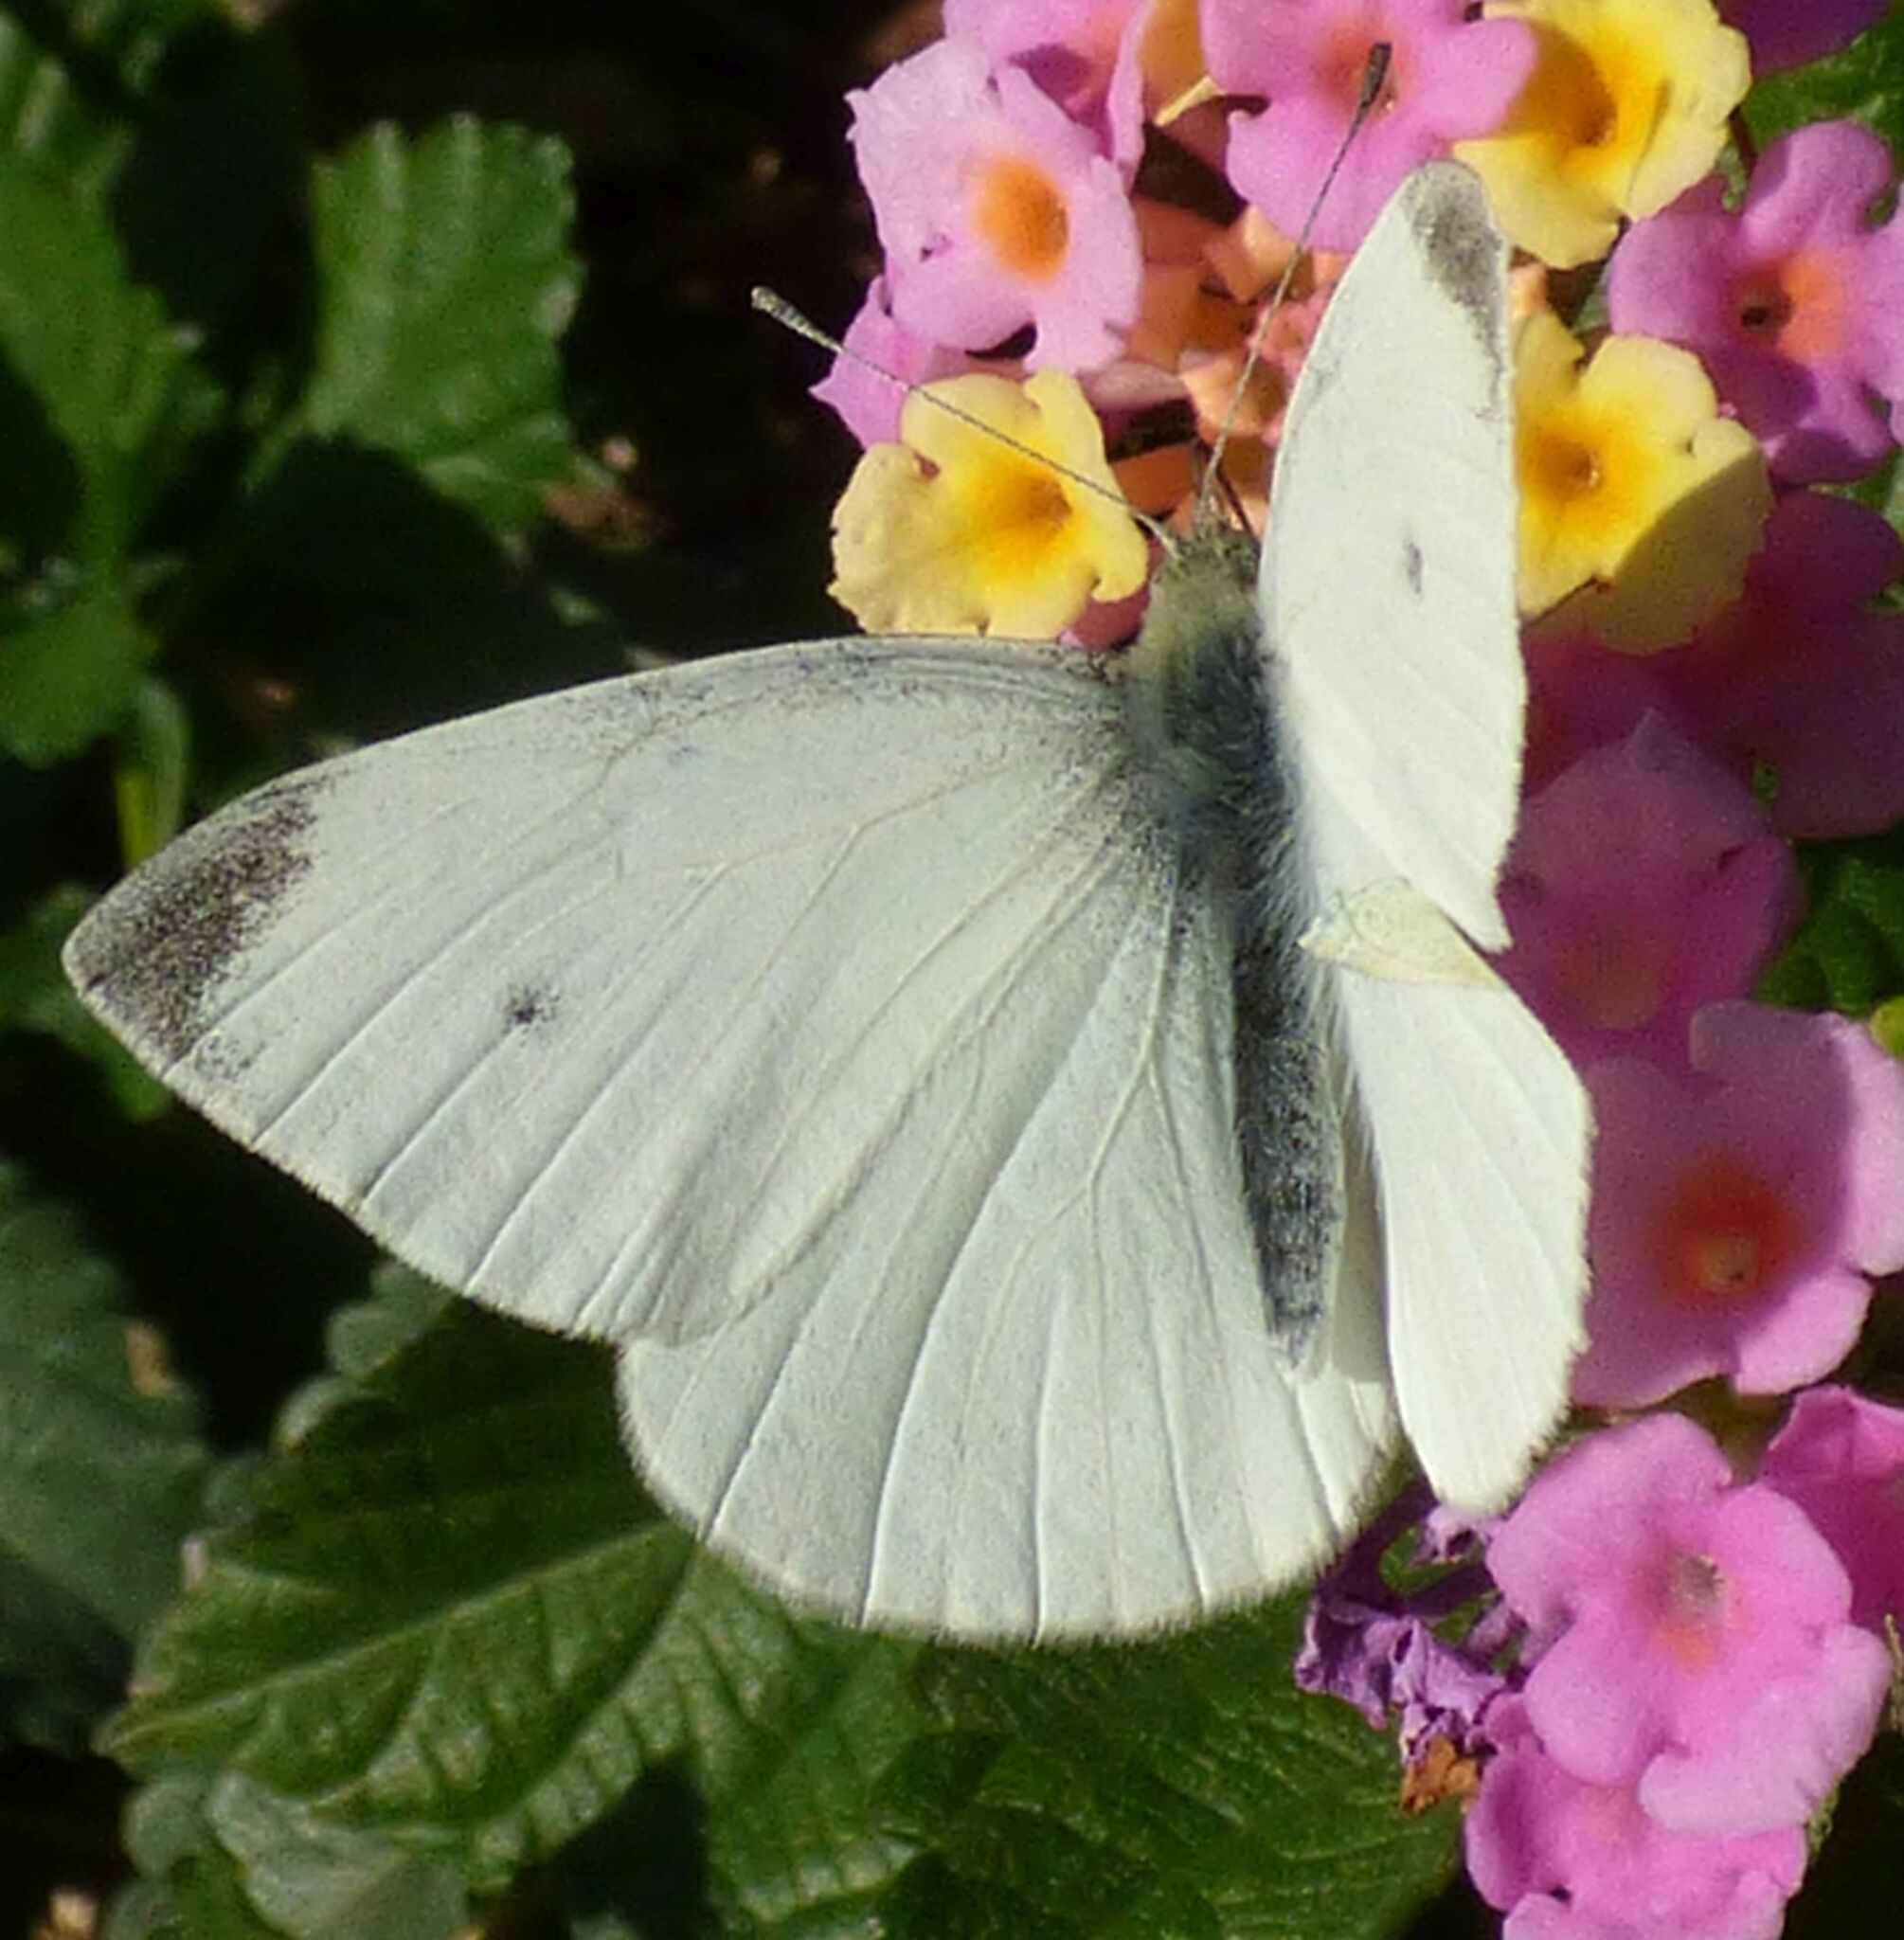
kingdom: Animalia
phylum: Arthropoda
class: Insecta
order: Lepidoptera
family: Pieridae
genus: Pieris
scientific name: Pieris rapae
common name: Small white
